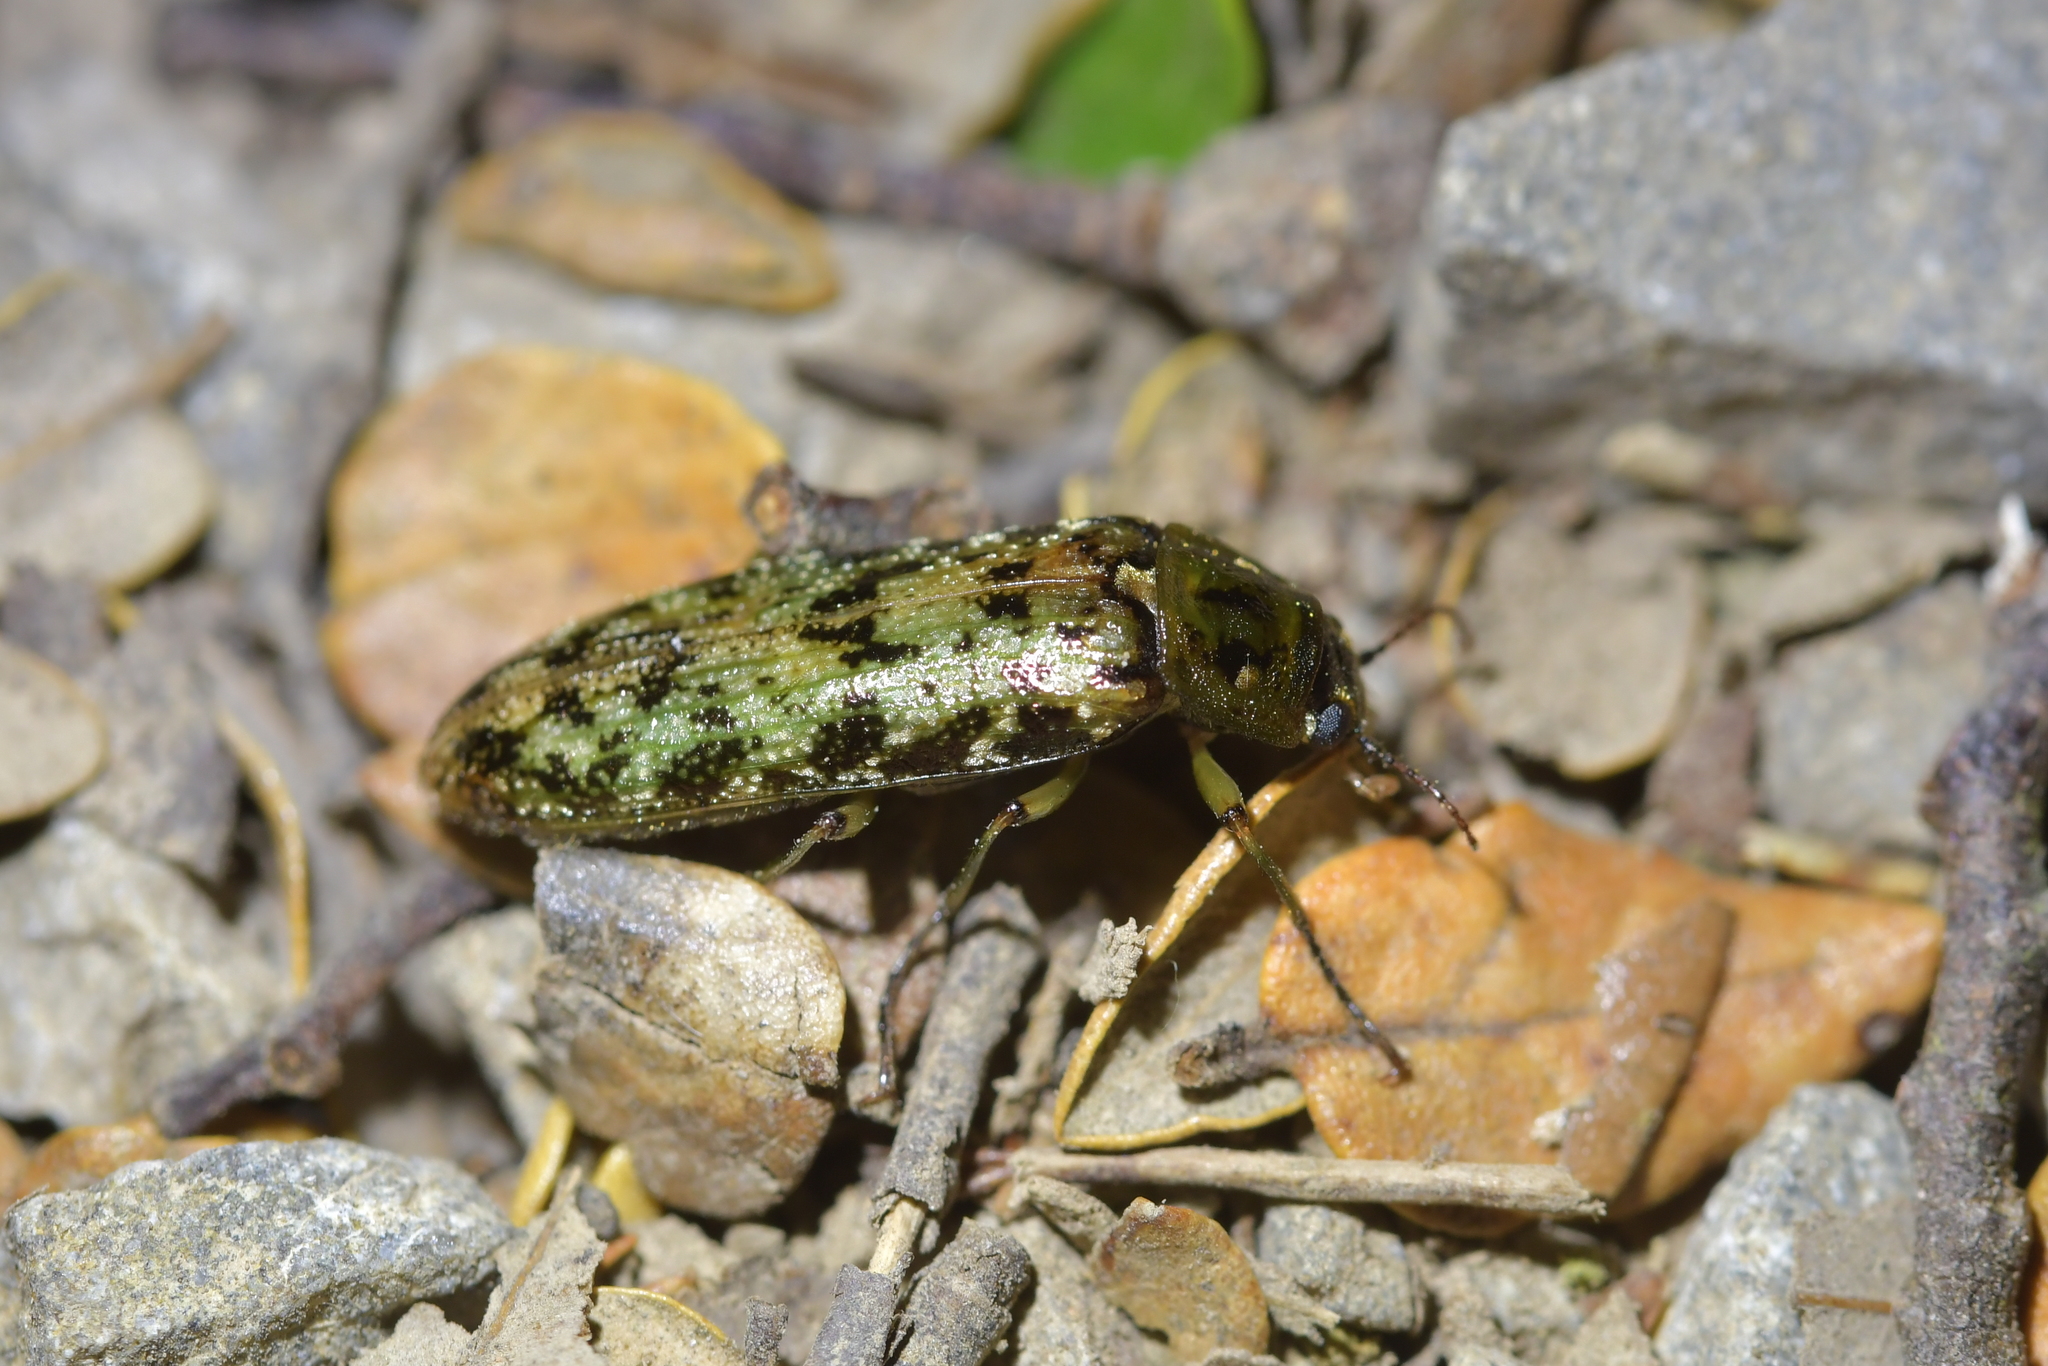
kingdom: Animalia
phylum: Arthropoda
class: Insecta
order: Coleoptera
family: Chalcodryidae
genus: Chalcodrya
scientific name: Chalcodrya
